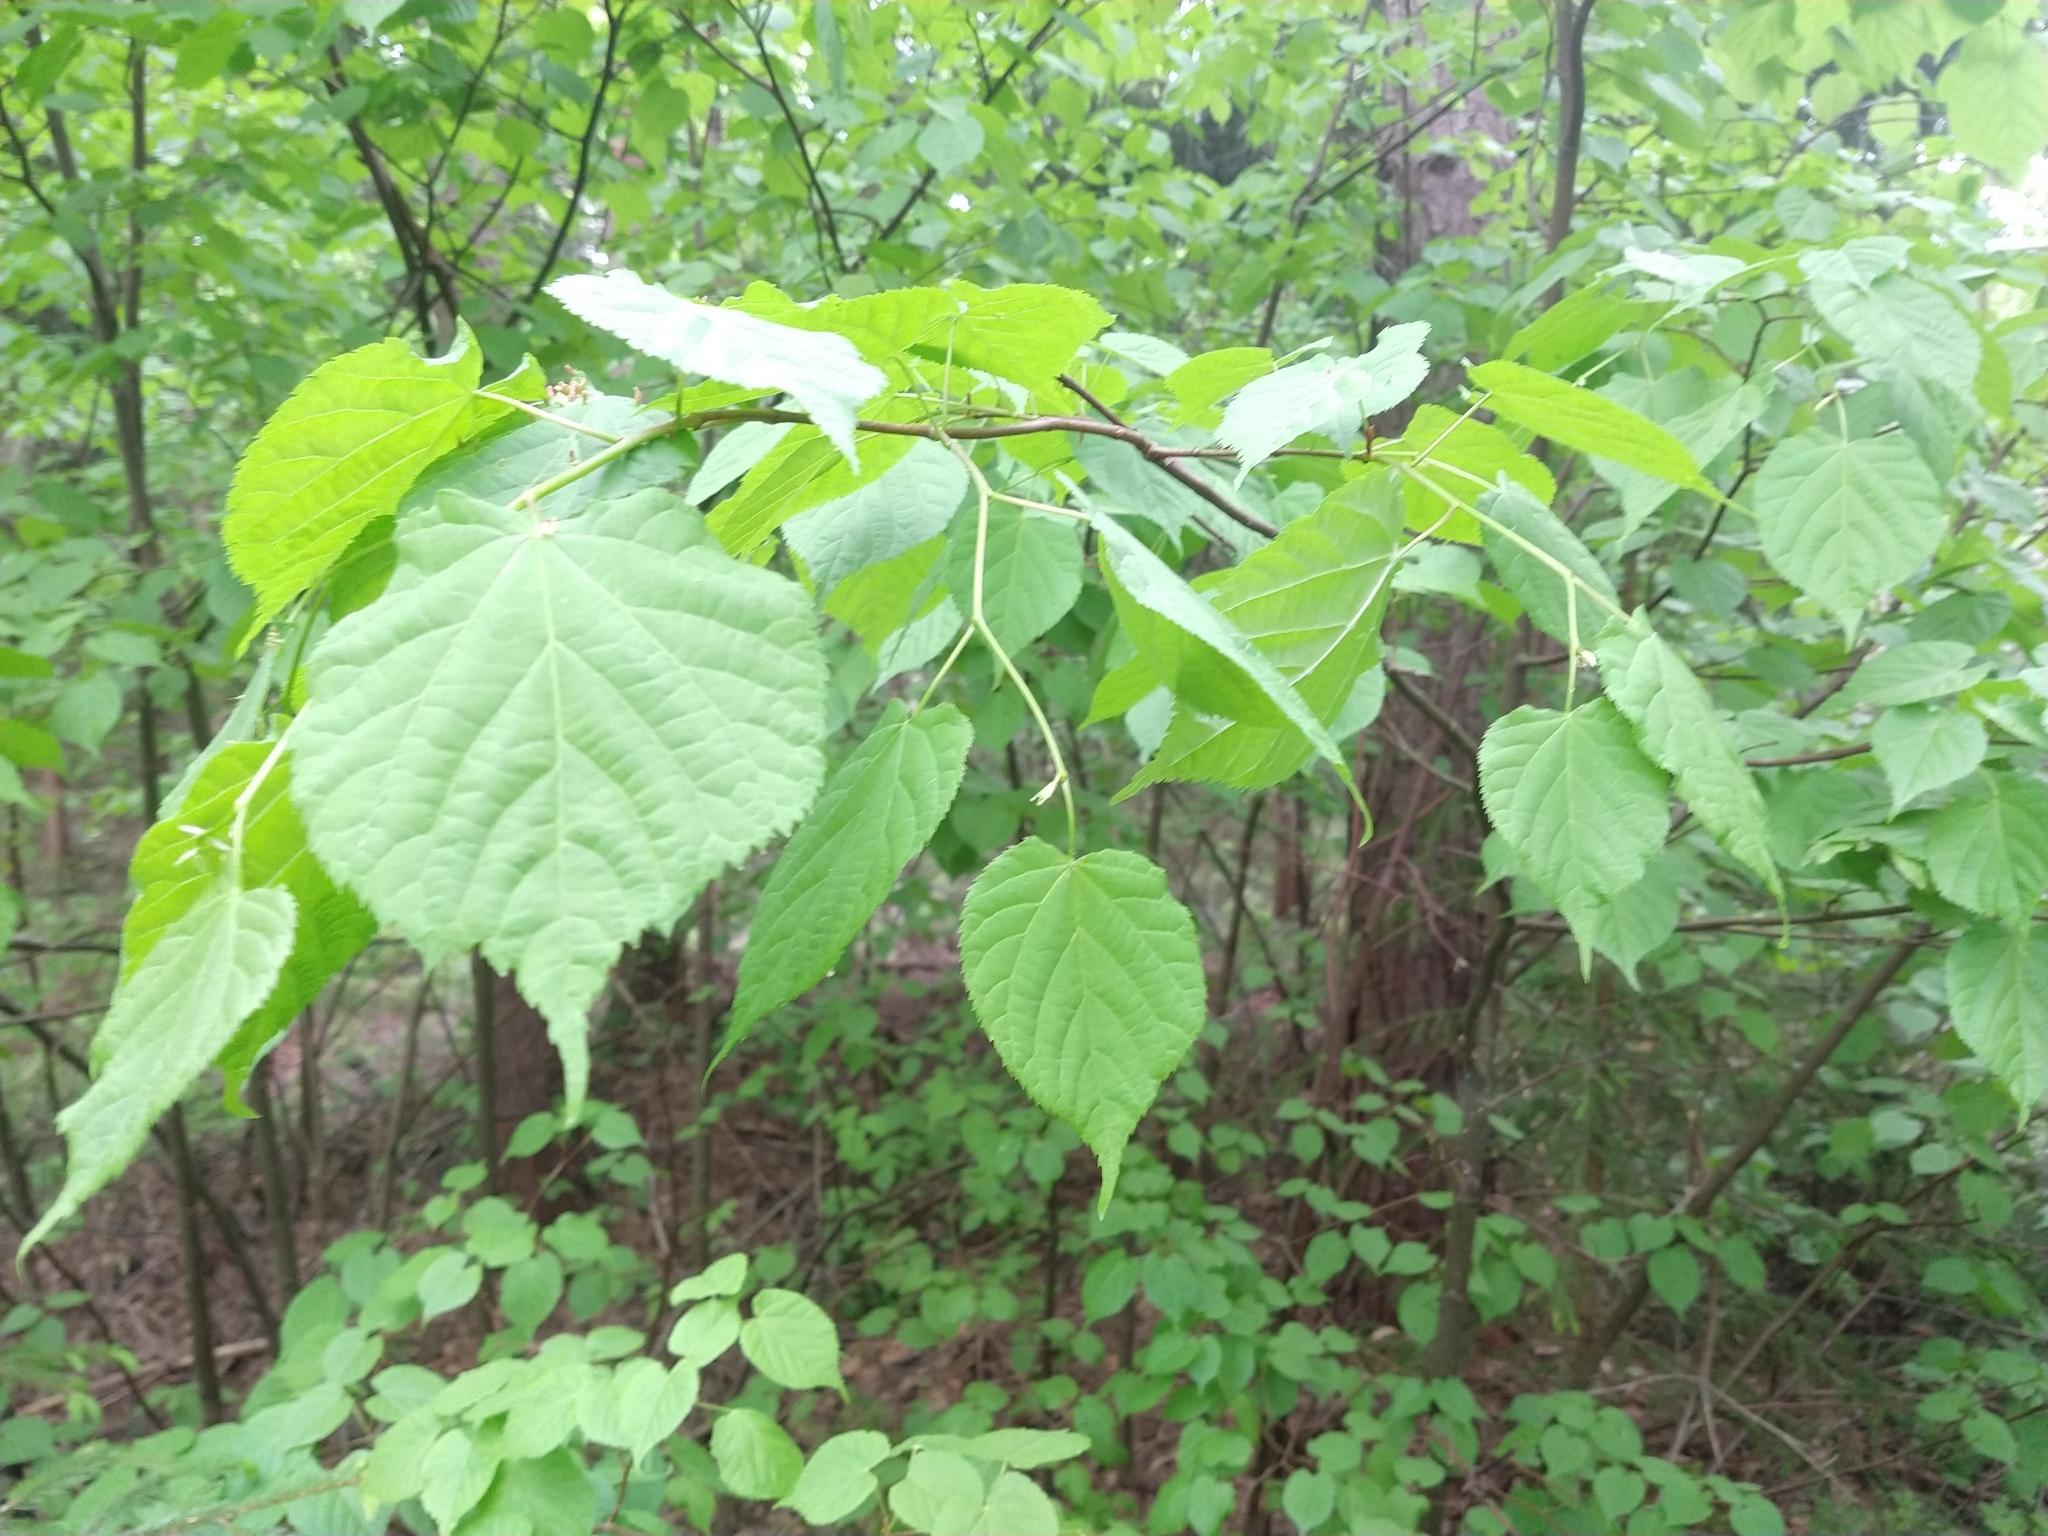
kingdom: Plantae
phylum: Tracheophyta
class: Magnoliopsida
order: Malvales
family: Malvaceae
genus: Tilia
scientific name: Tilia cordata
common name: Small-leaved lime
